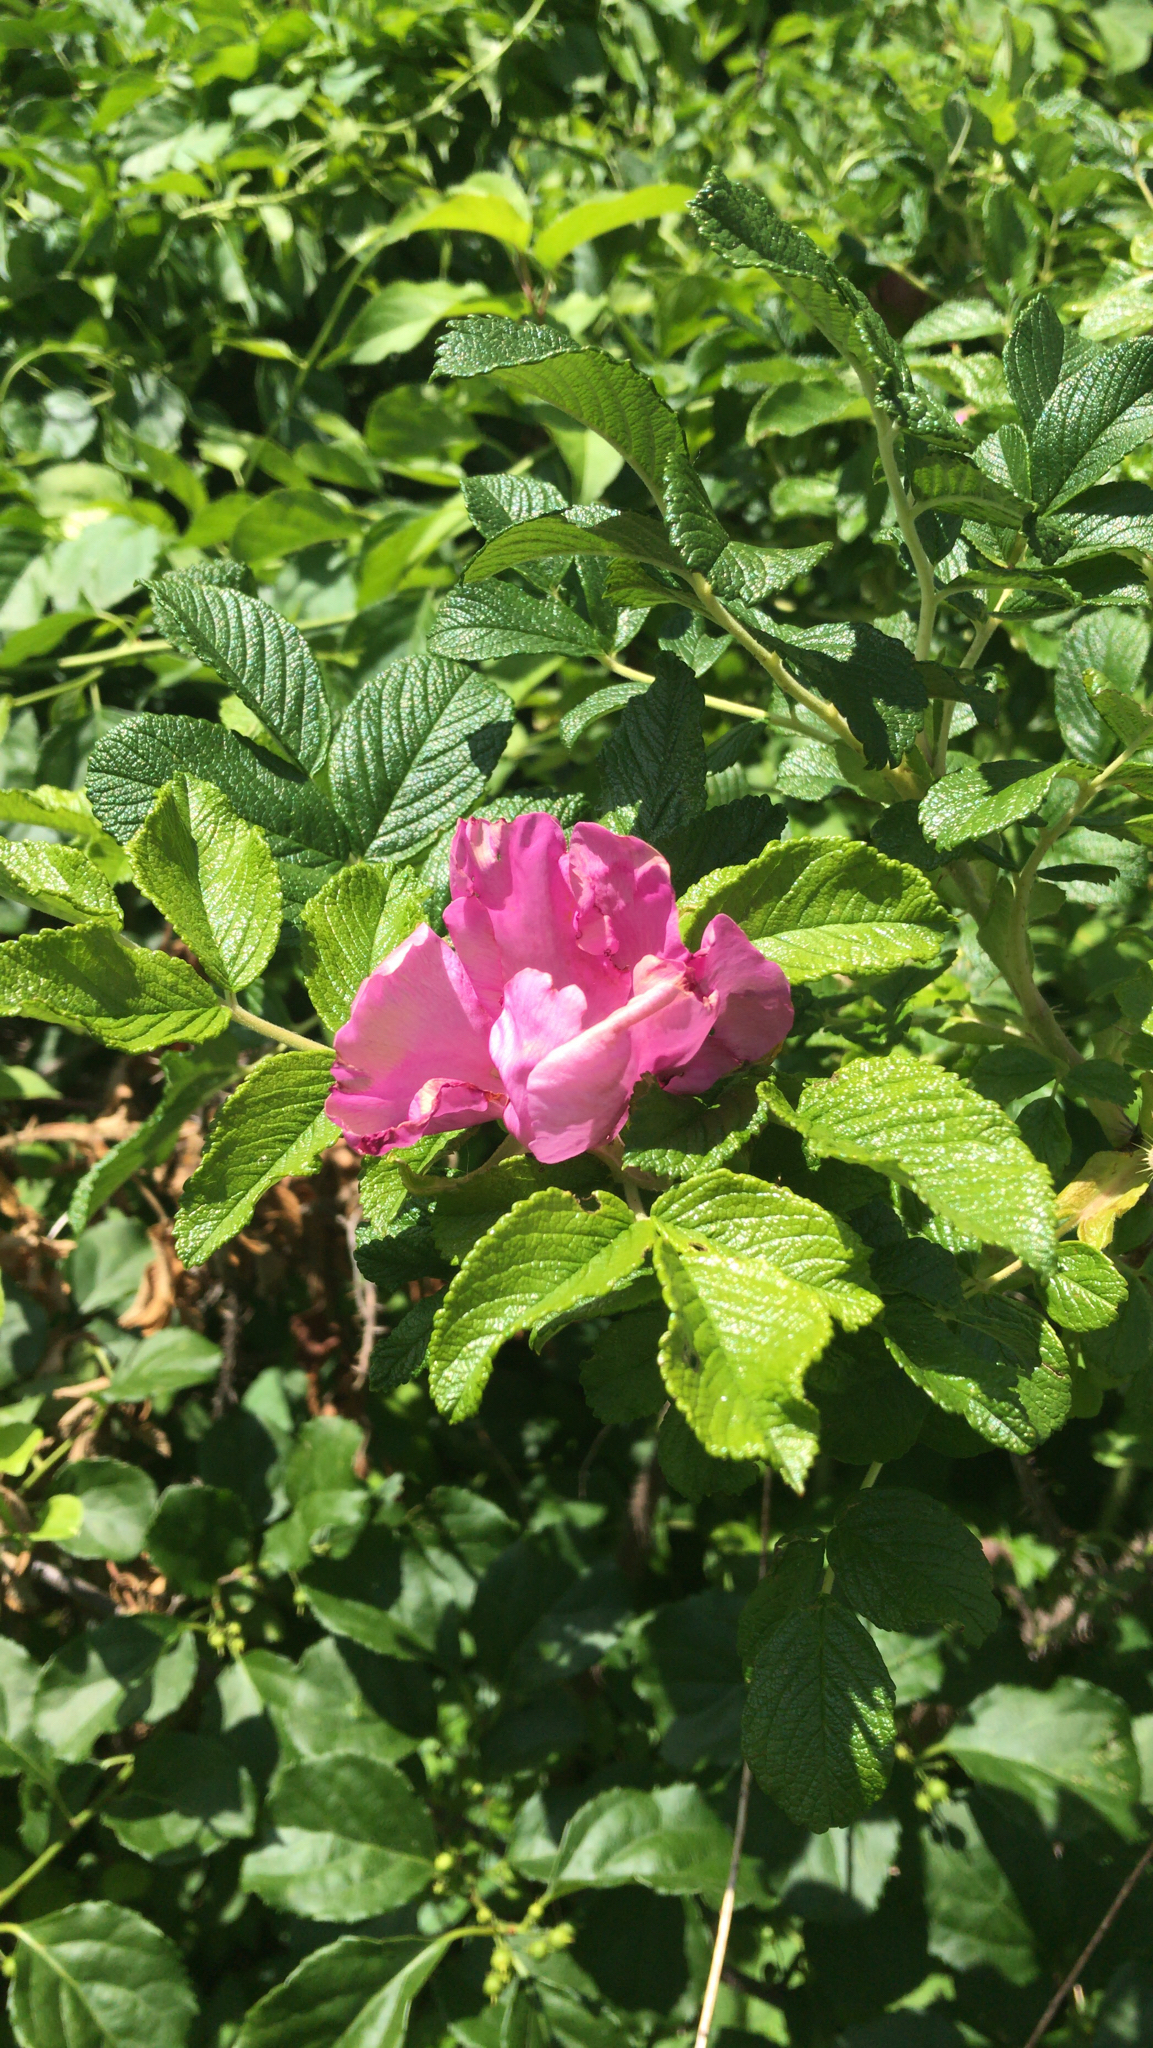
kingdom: Plantae
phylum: Tracheophyta
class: Magnoliopsida
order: Rosales
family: Rosaceae
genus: Rosa
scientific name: Rosa rugosa
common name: Japanese rose
